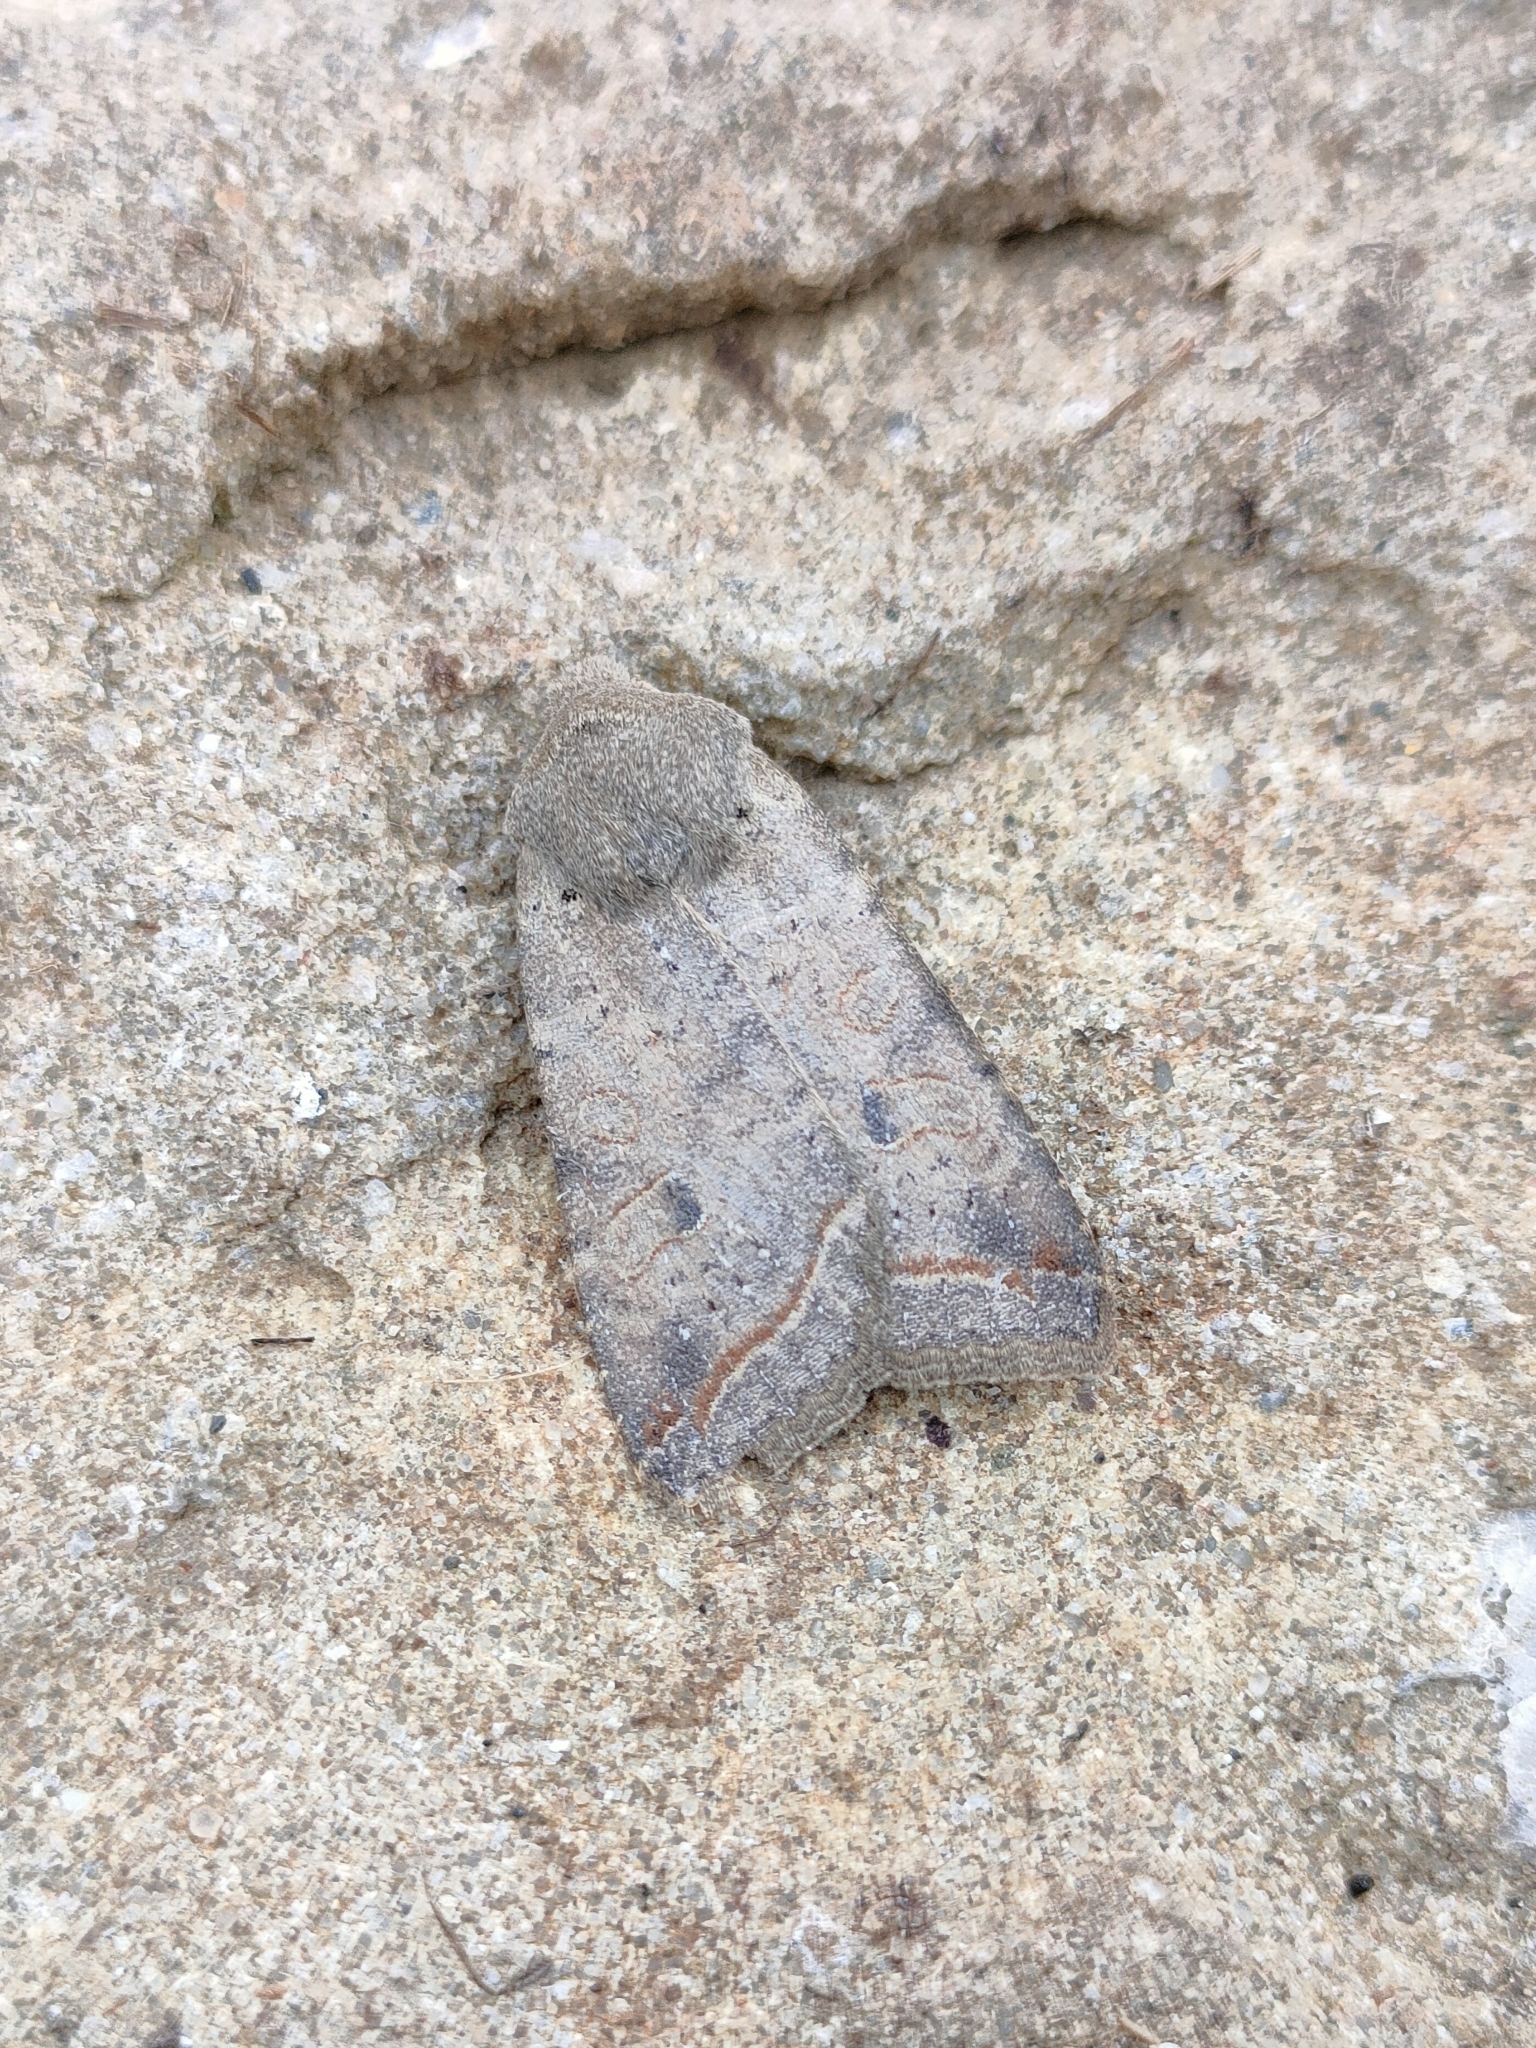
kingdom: Animalia
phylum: Arthropoda
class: Insecta
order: Lepidoptera
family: Noctuidae
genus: Agrochola
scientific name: Agrochola lota
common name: Red-line quaker
